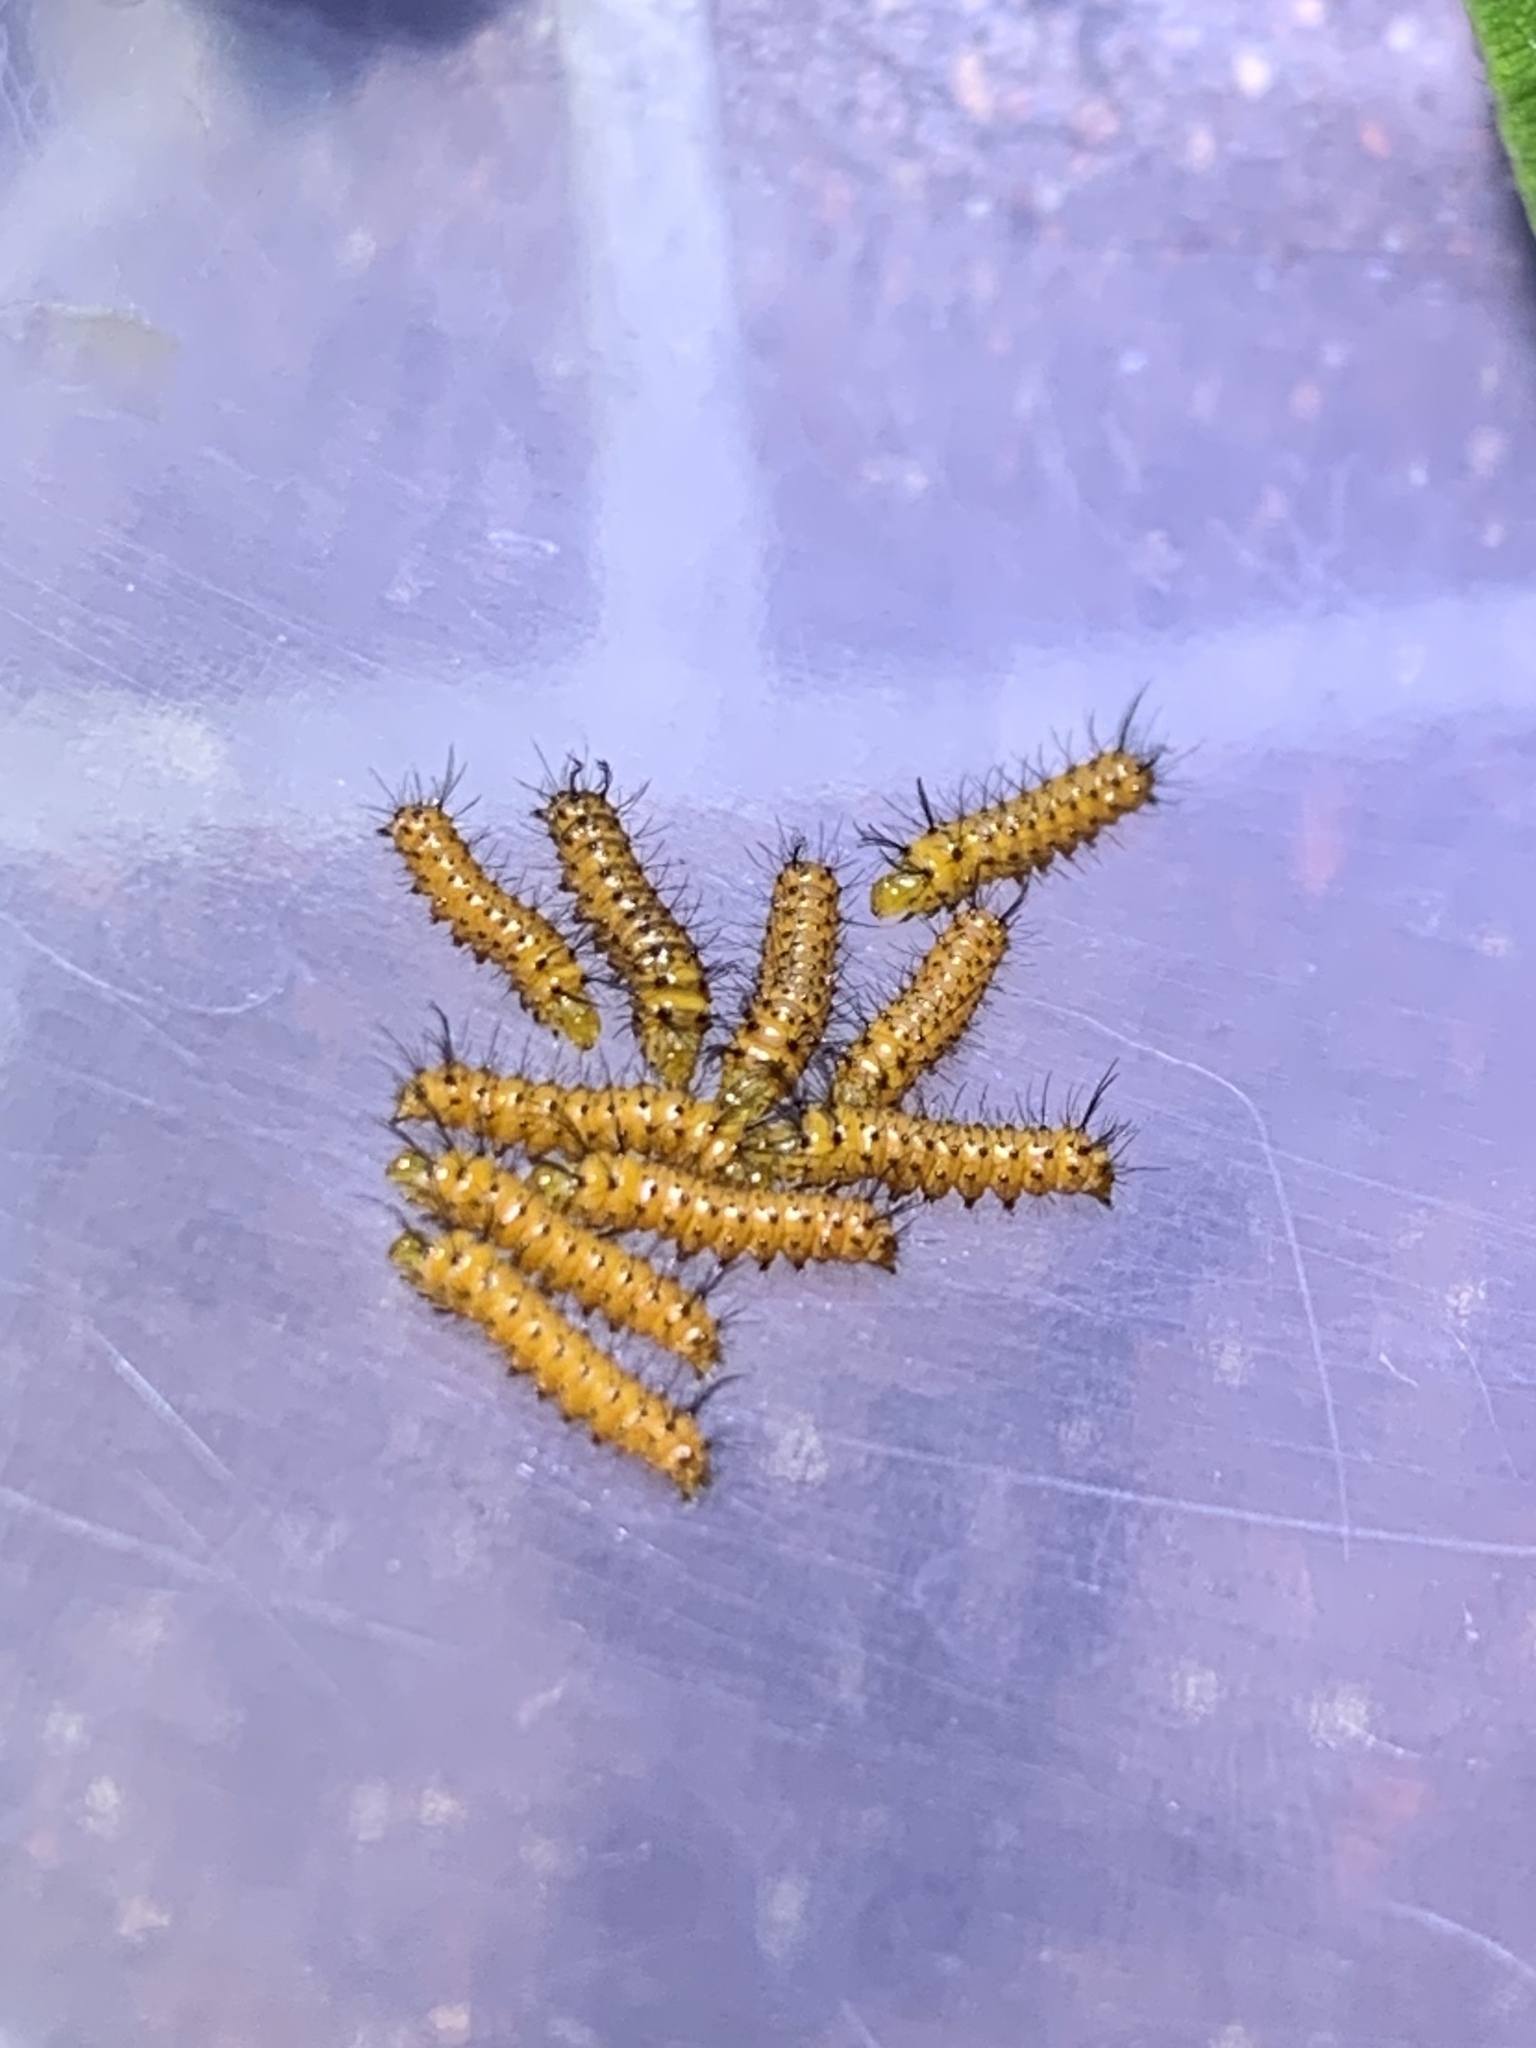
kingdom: Animalia
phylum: Arthropoda
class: Insecta
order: Lepidoptera
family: Erebidae
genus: Syntomeida
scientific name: Syntomeida epilais
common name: Polka-dot wasp moth
